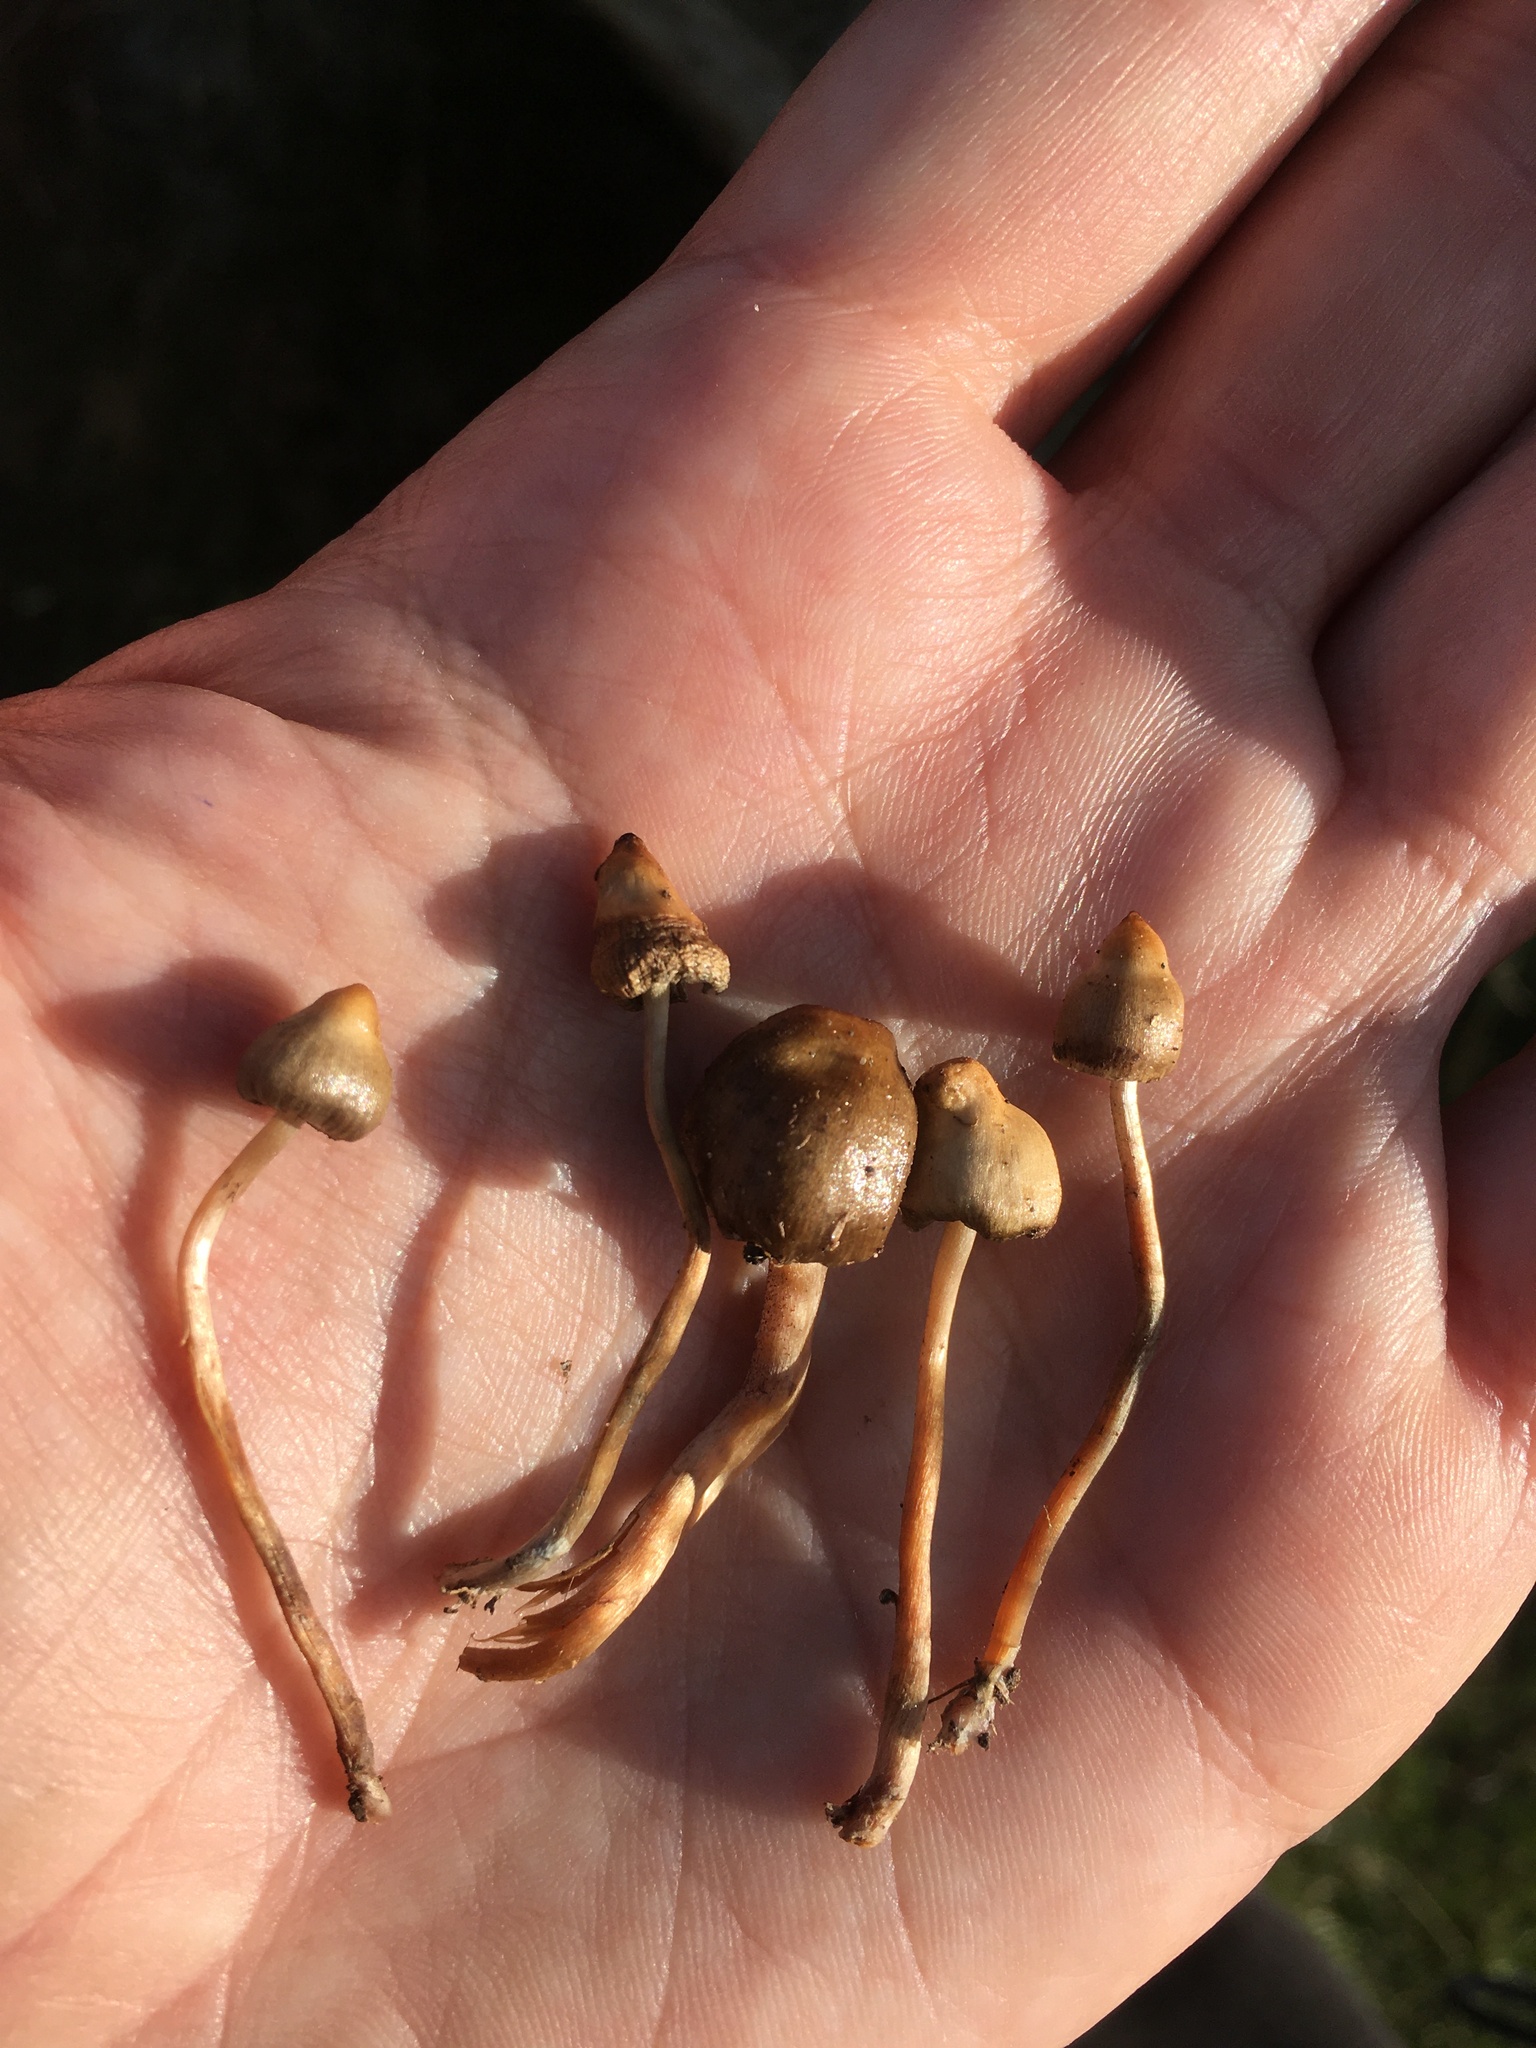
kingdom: Fungi
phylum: Basidiomycota
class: Agaricomycetes
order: Agaricales
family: Hymenogastraceae
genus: Psilocybe
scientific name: Psilocybe semilanceata
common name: Liberty cap
